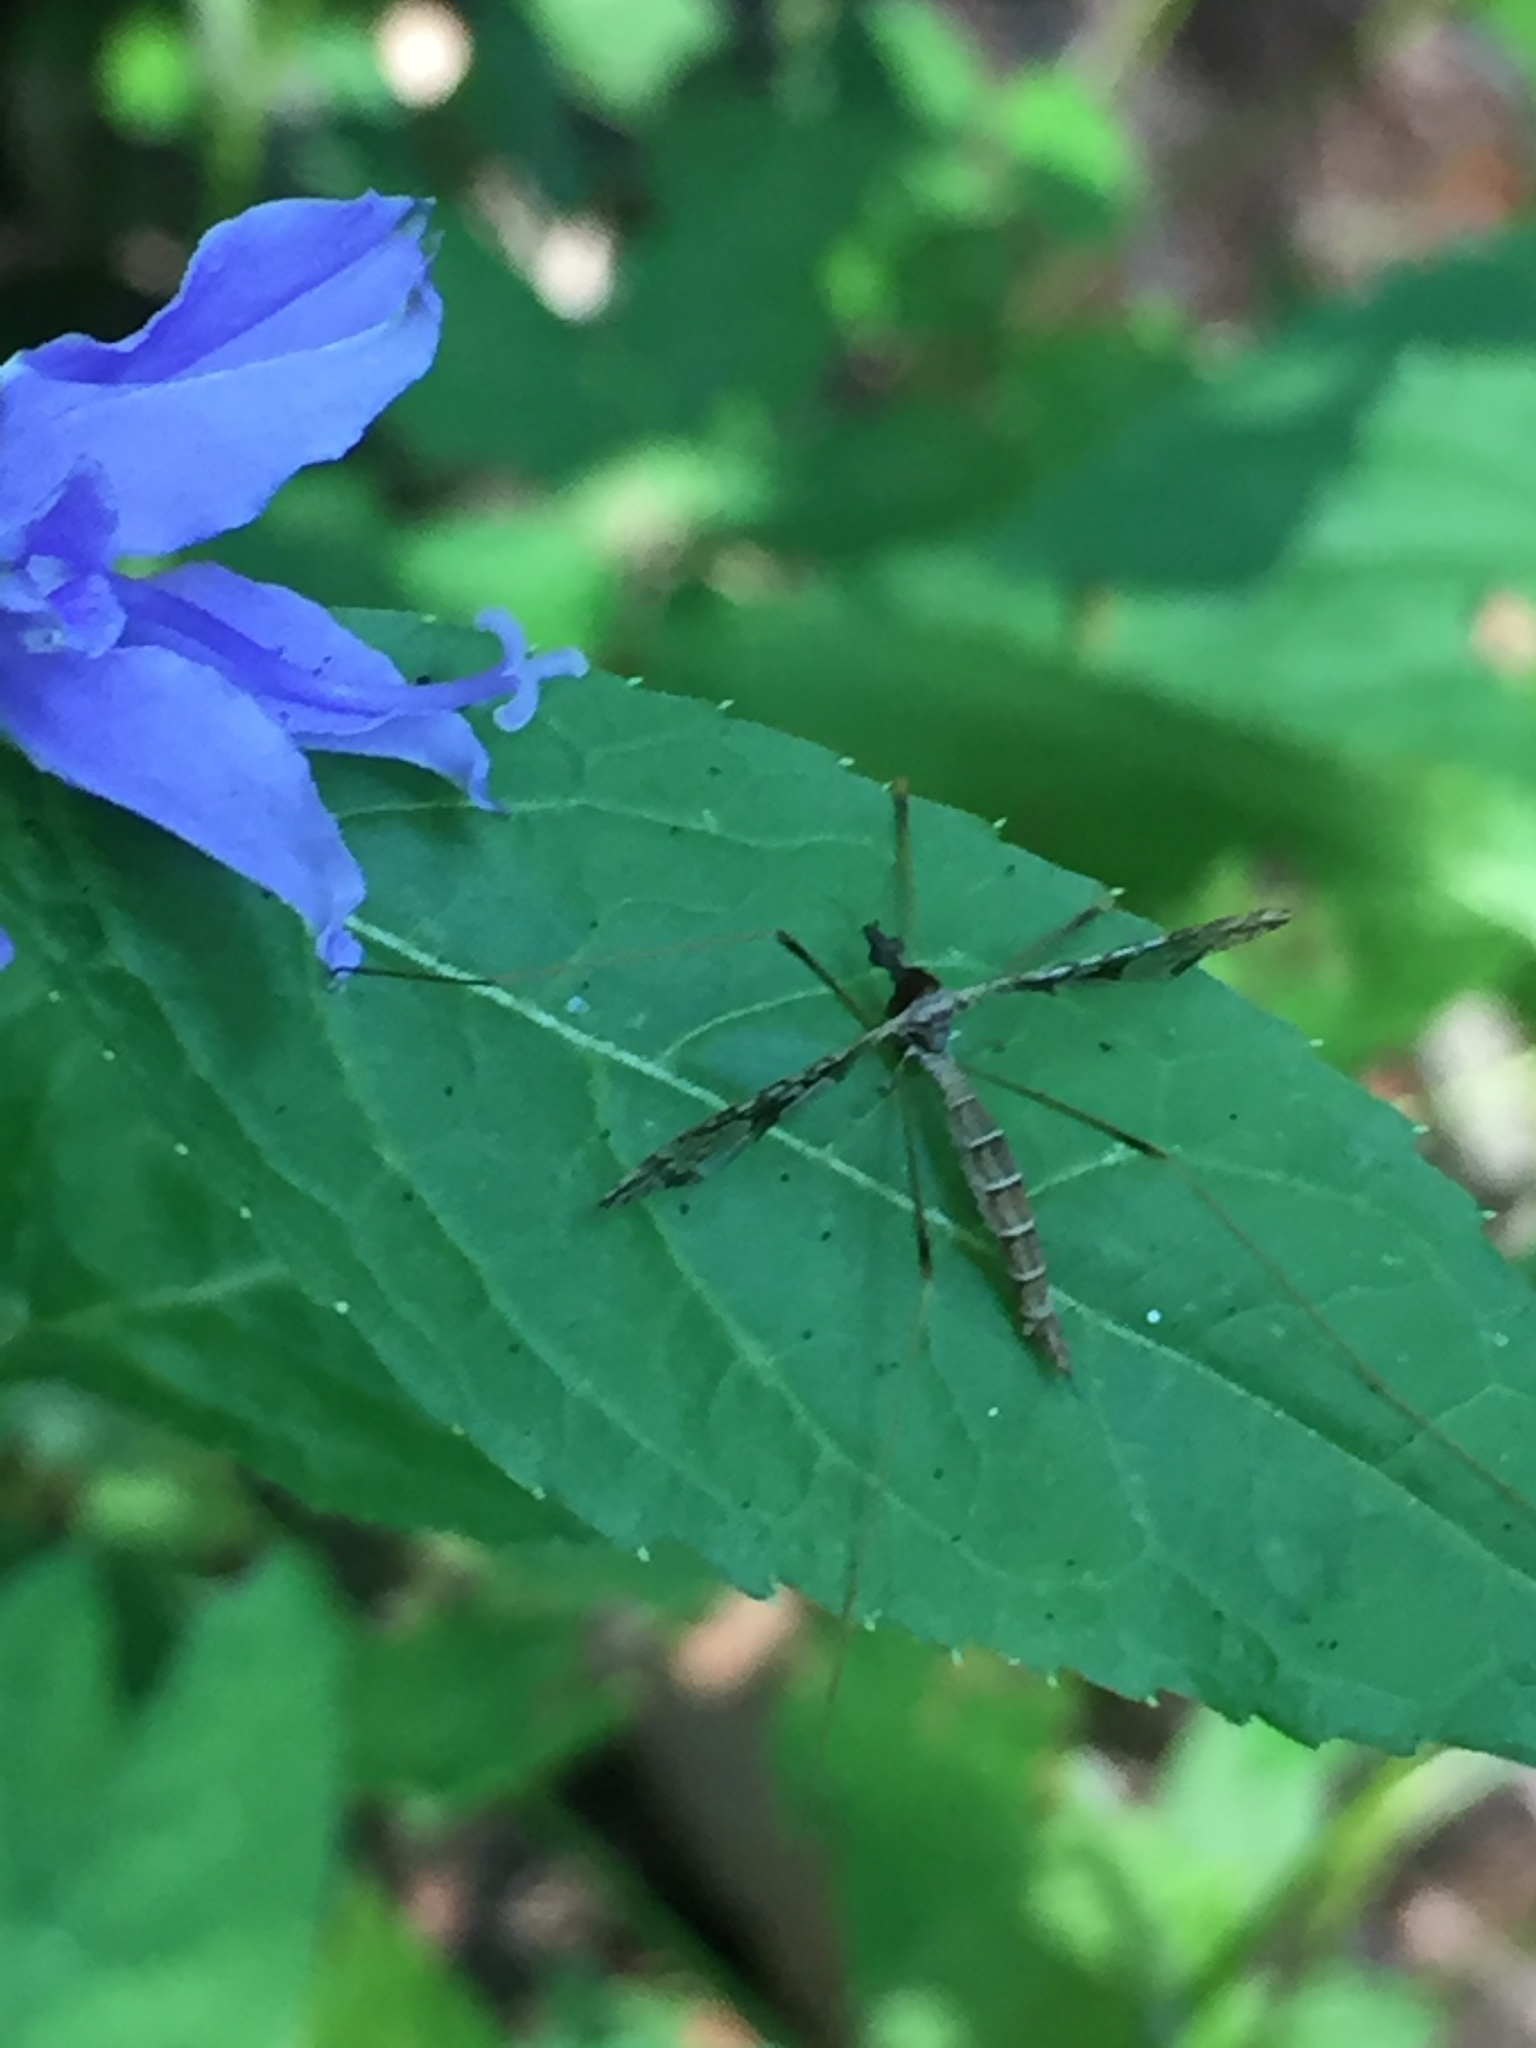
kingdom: Animalia
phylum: Arthropoda
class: Insecta
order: Diptera
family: Limoniidae
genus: Epiphragma
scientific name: Epiphragma solatrix
